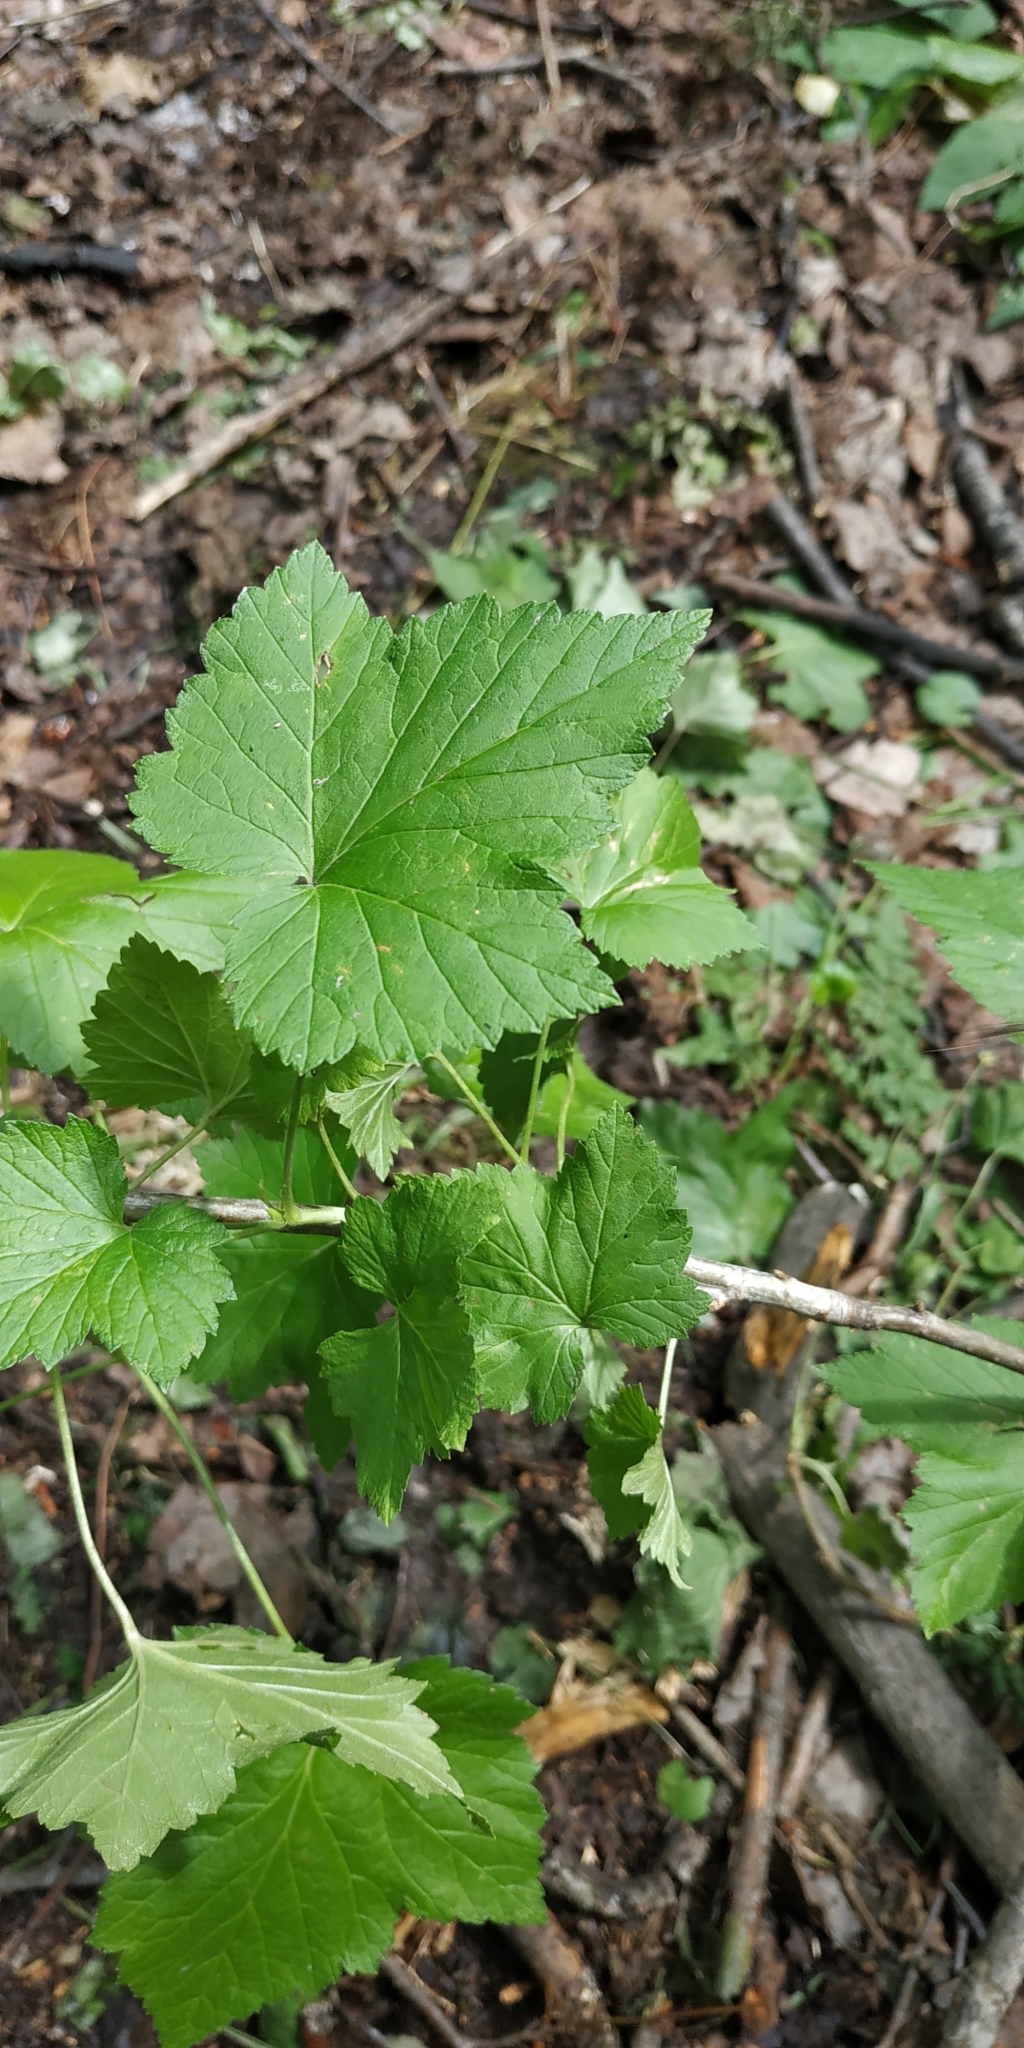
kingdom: Plantae
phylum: Tracheophyta
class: Magnoliopsida
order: Saxifragales
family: Grossulariaceae
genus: Ribes
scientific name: Ribes nigrum
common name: Black currant
